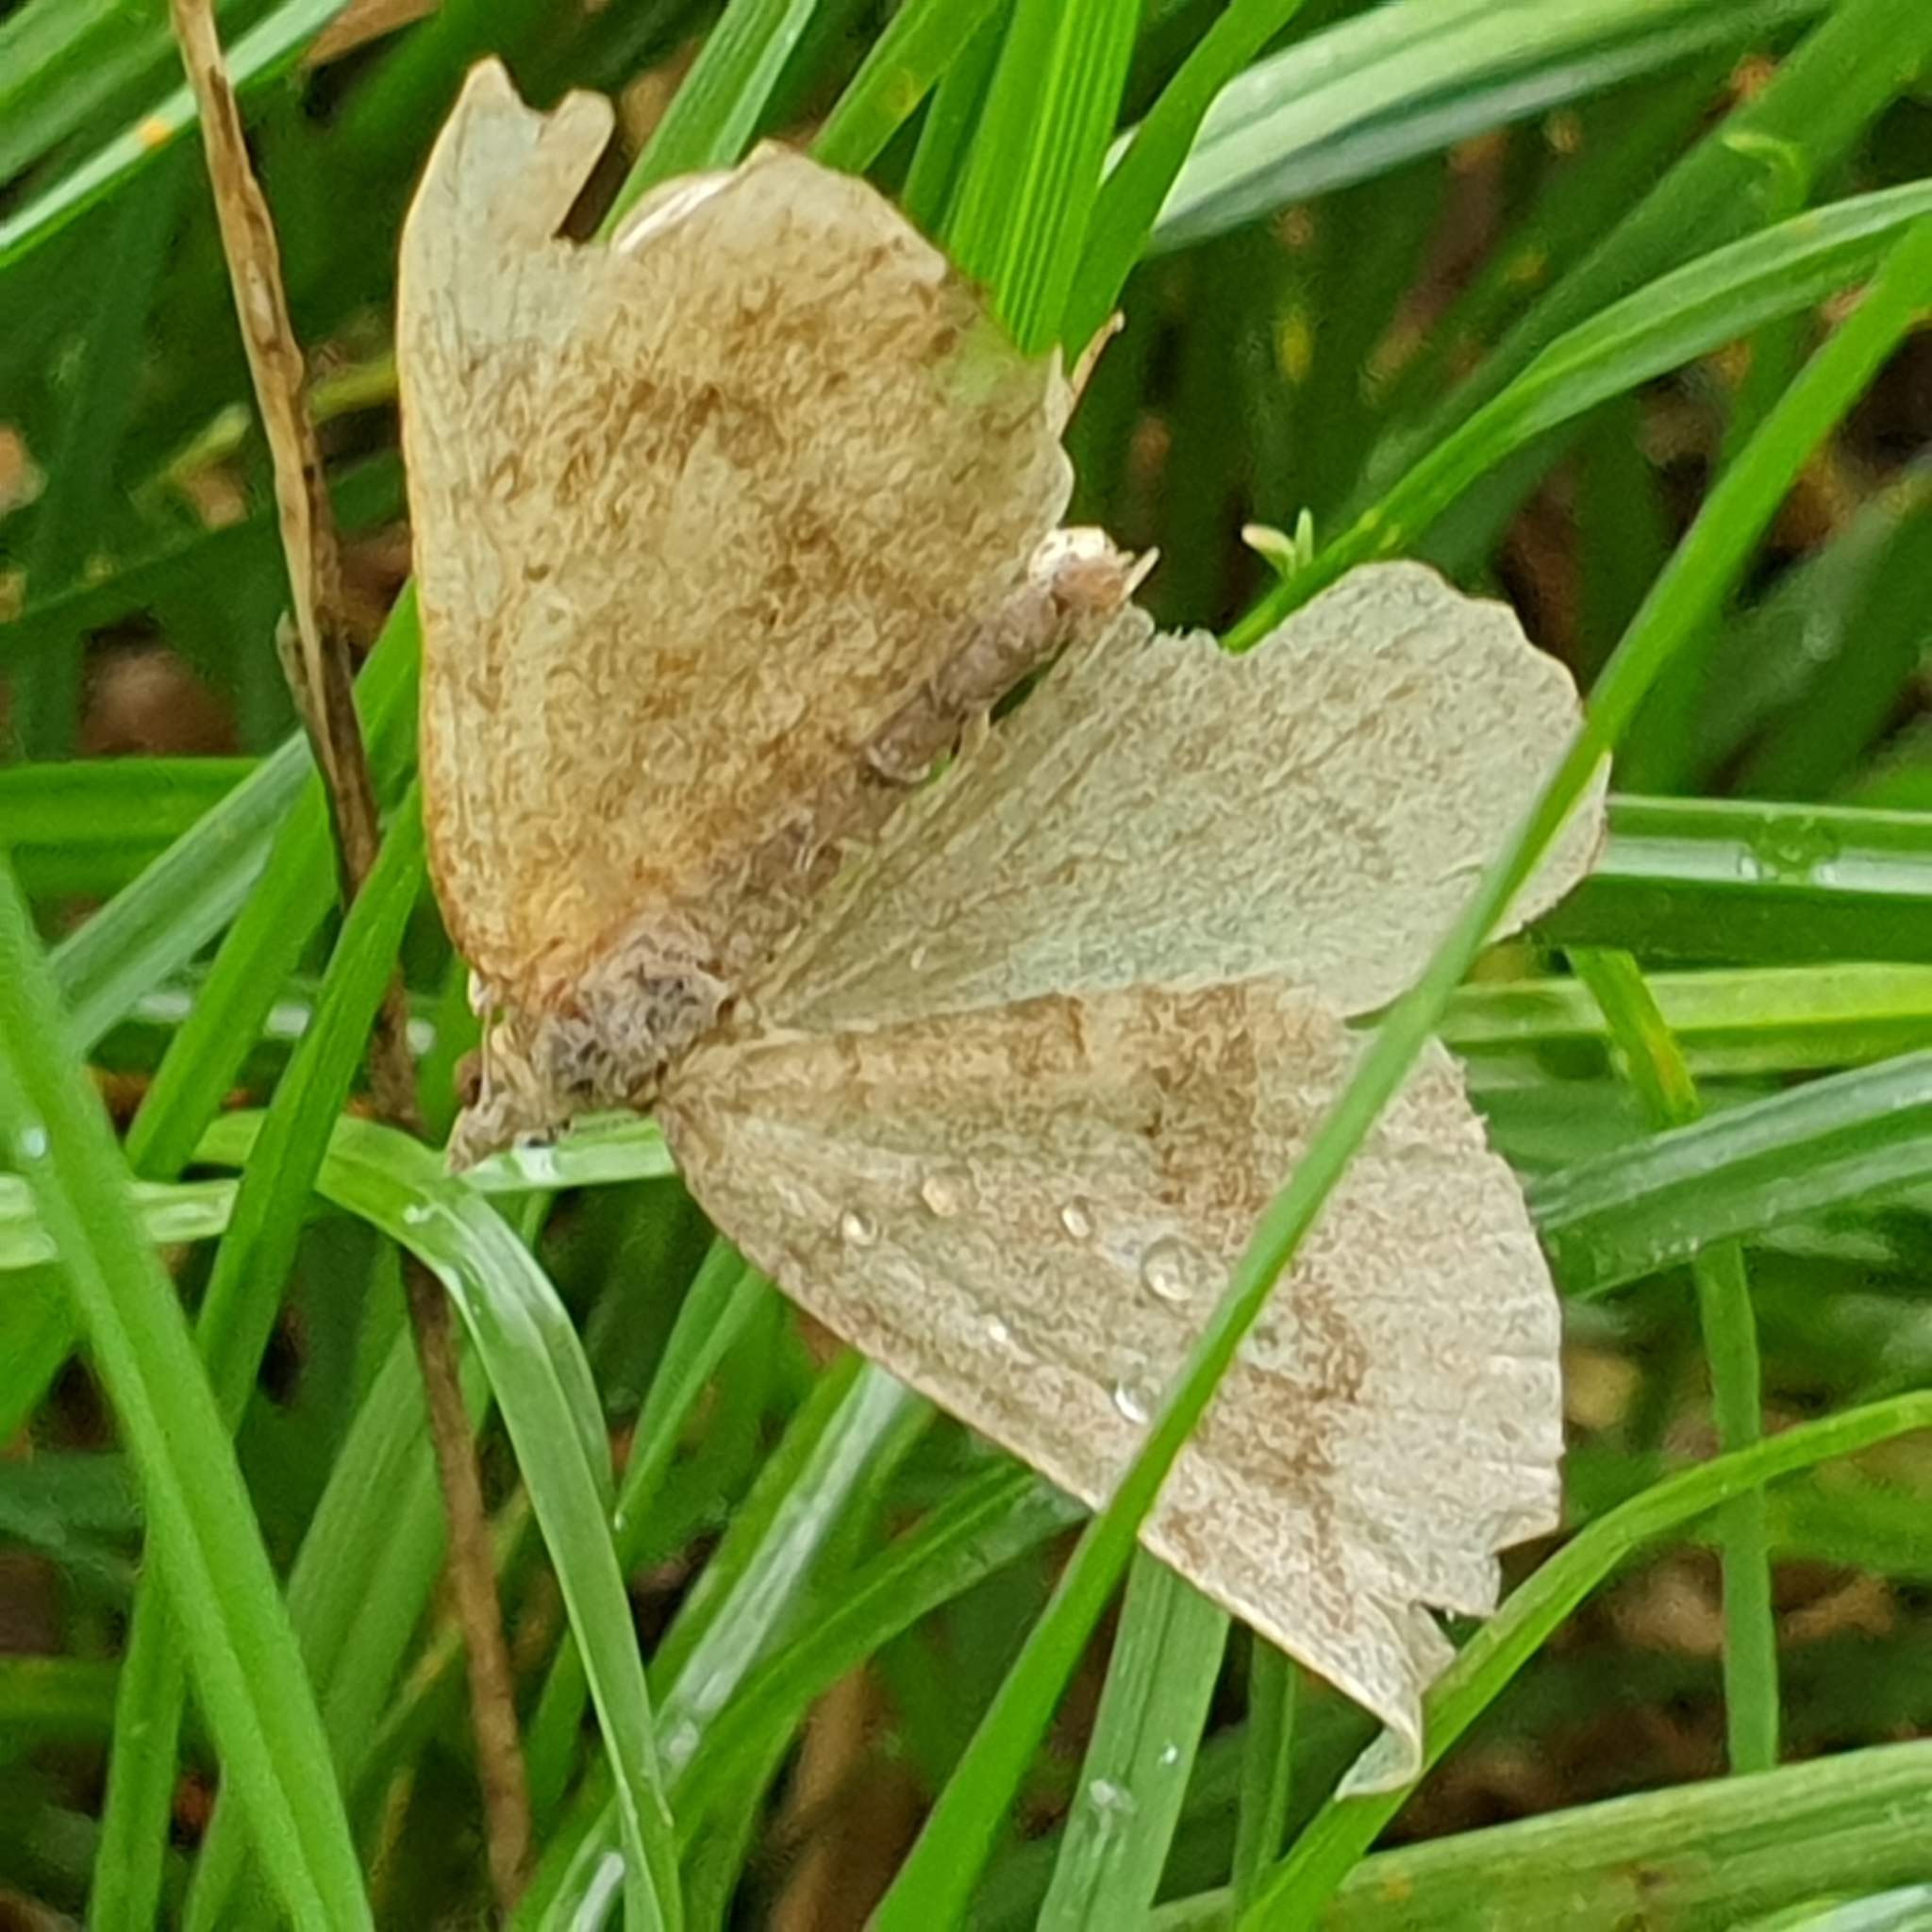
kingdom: Animalia
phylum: Arthropoda
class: Insecta
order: Lepidoptera
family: Geometridae
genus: Scotopteryx
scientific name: Scotopteryx chenopodiata
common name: Shaded broad-bar
